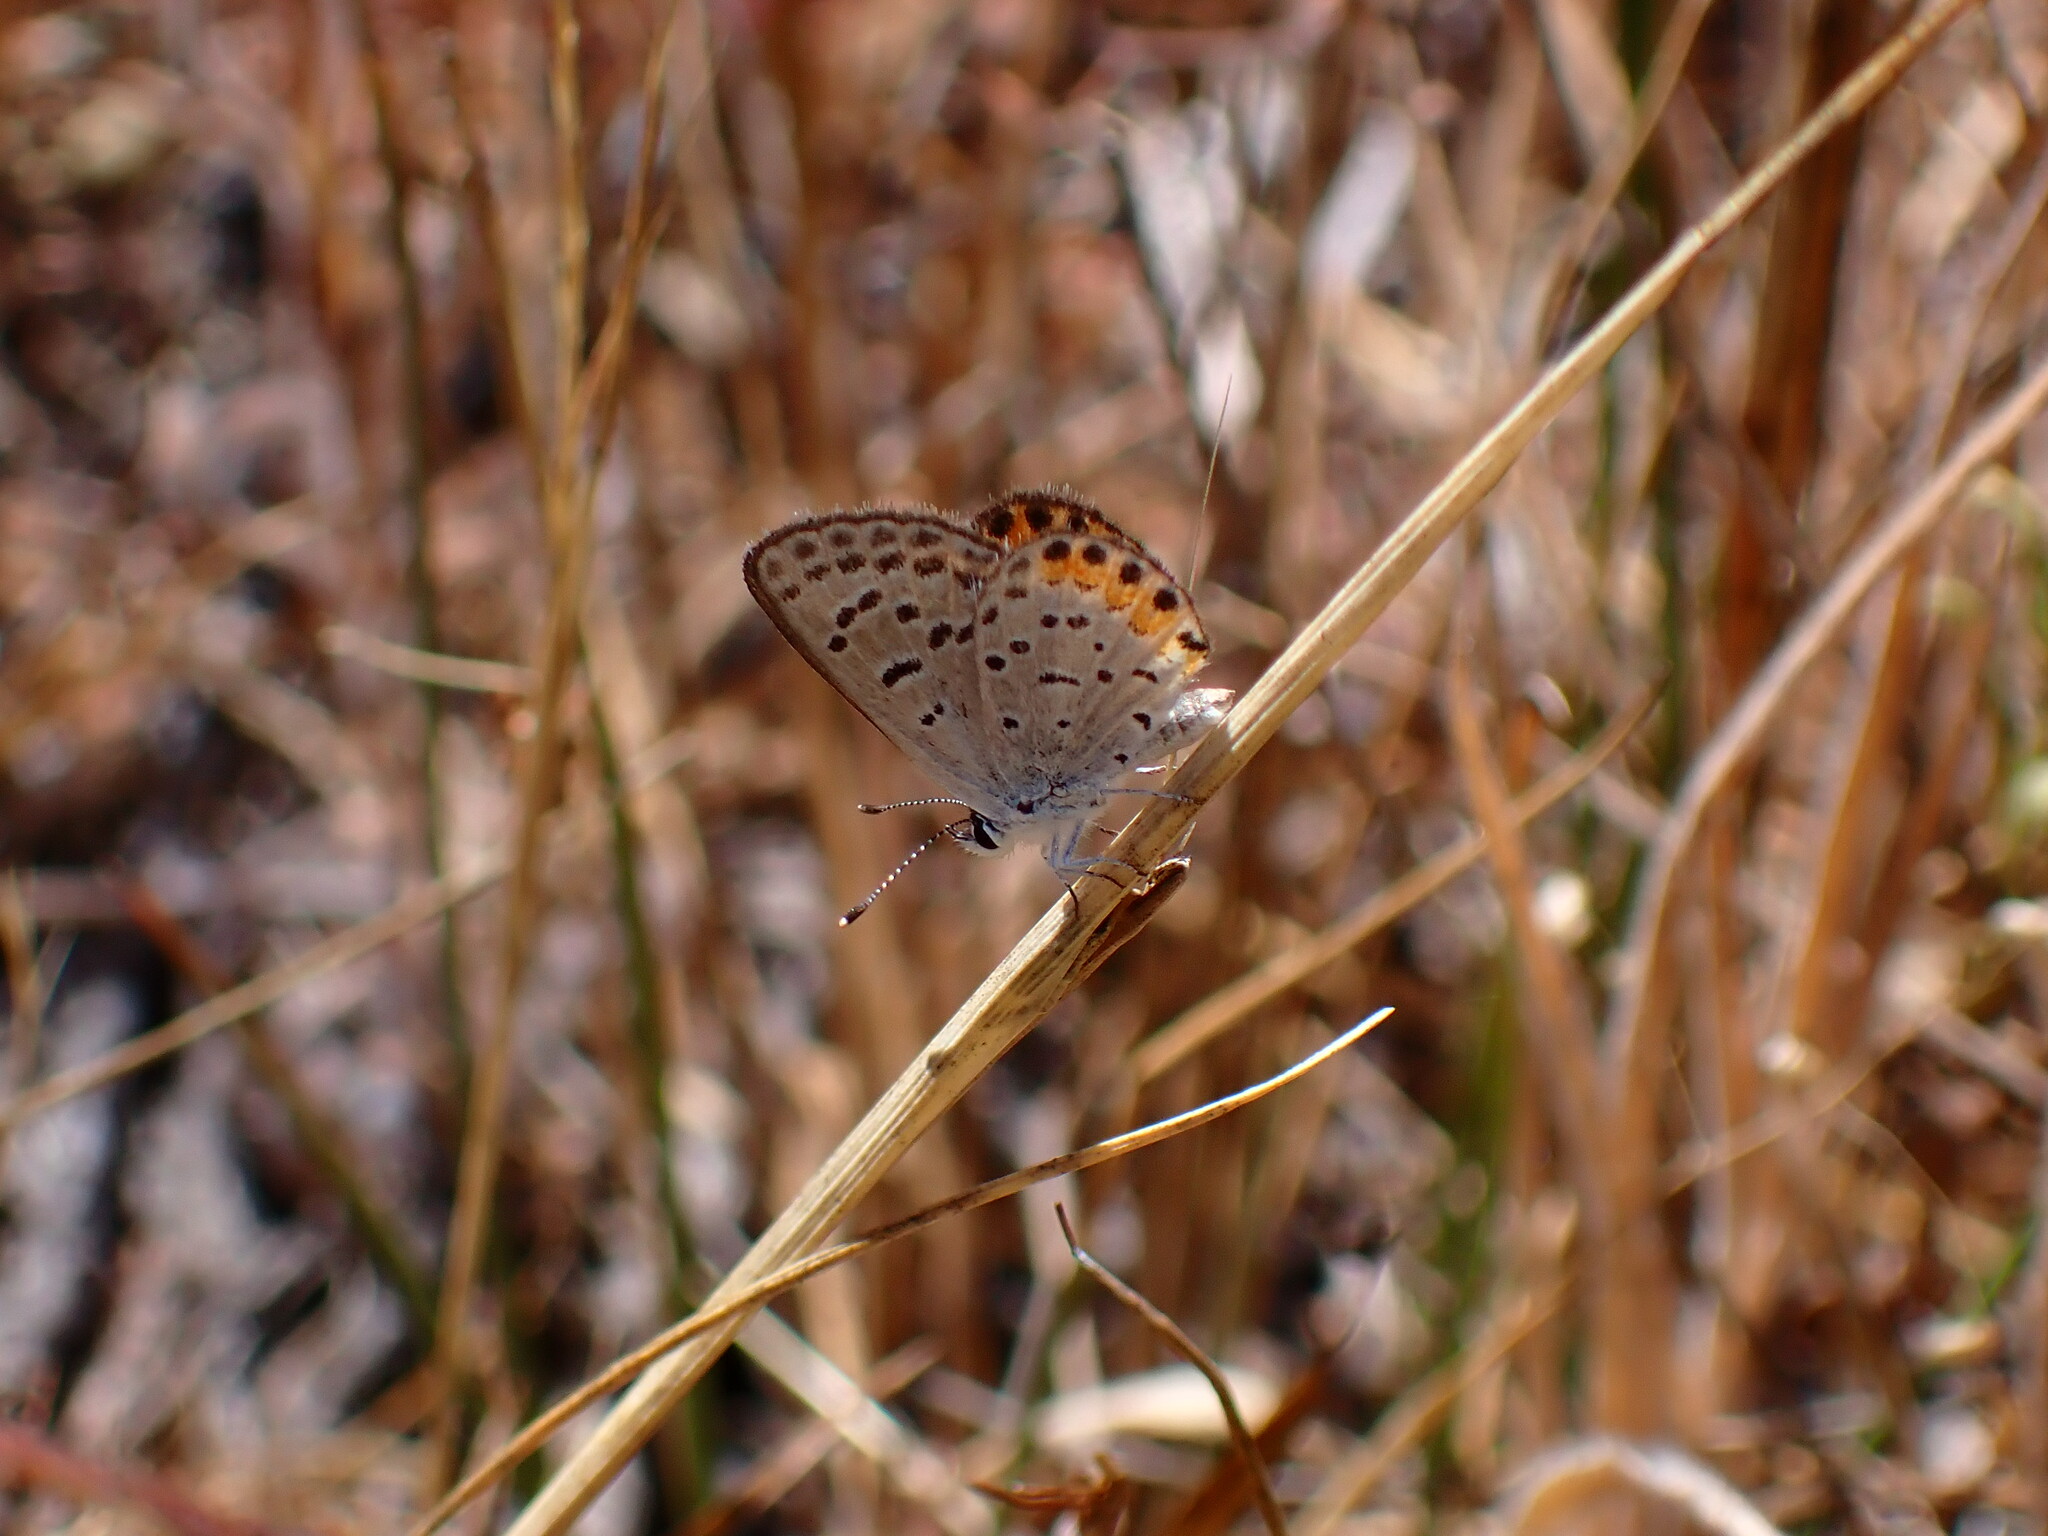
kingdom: Animalia
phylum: Arthropoda
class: Insecta
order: Lepidoptera
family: Lycaenidae
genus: Icaricia
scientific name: Icaricia acmon
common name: Acmon blue
